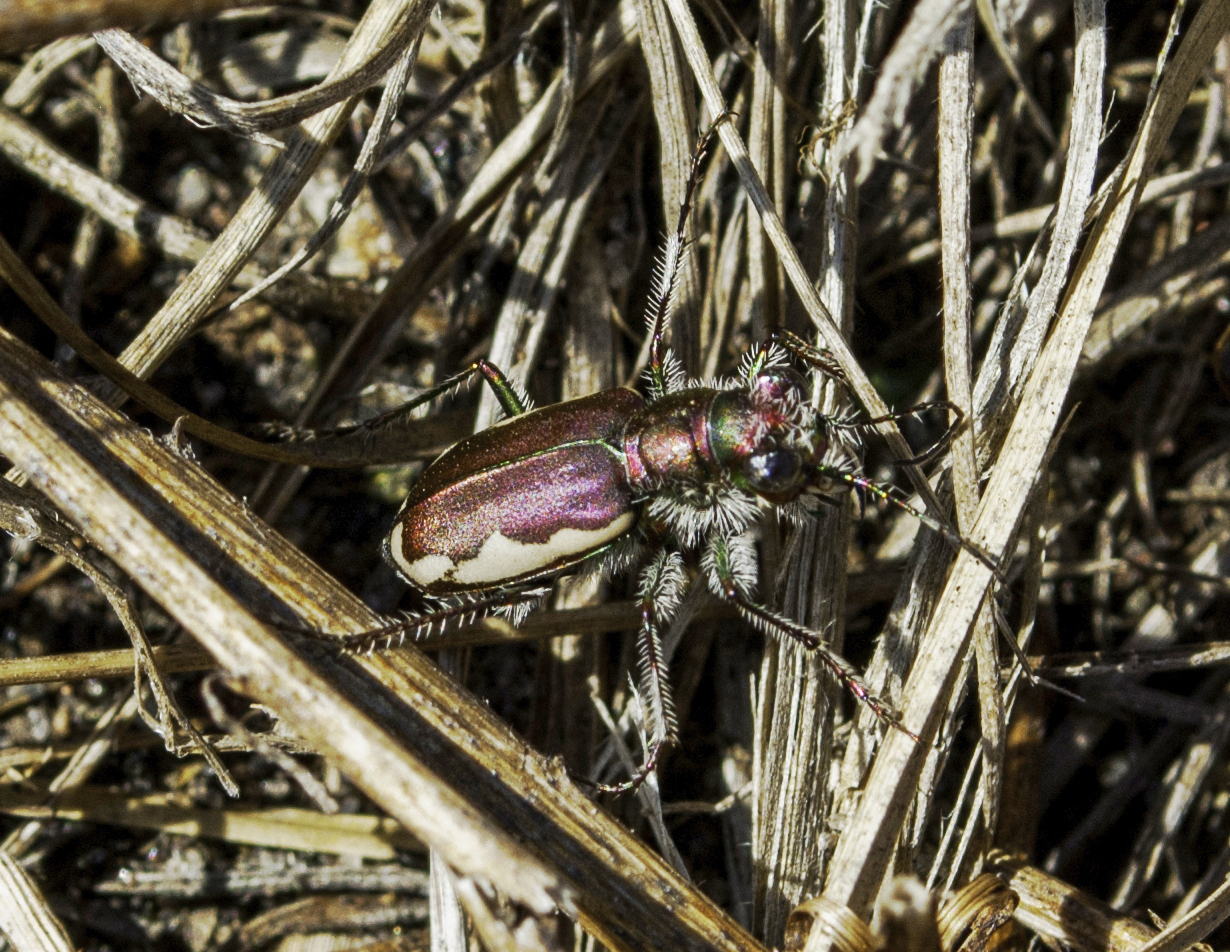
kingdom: Animalia
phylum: Arthropoda
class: Insecta
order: Coleoptera
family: Carabidae
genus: Cicindela
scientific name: Cicindela scutellaris
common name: Festive tiger beetle
